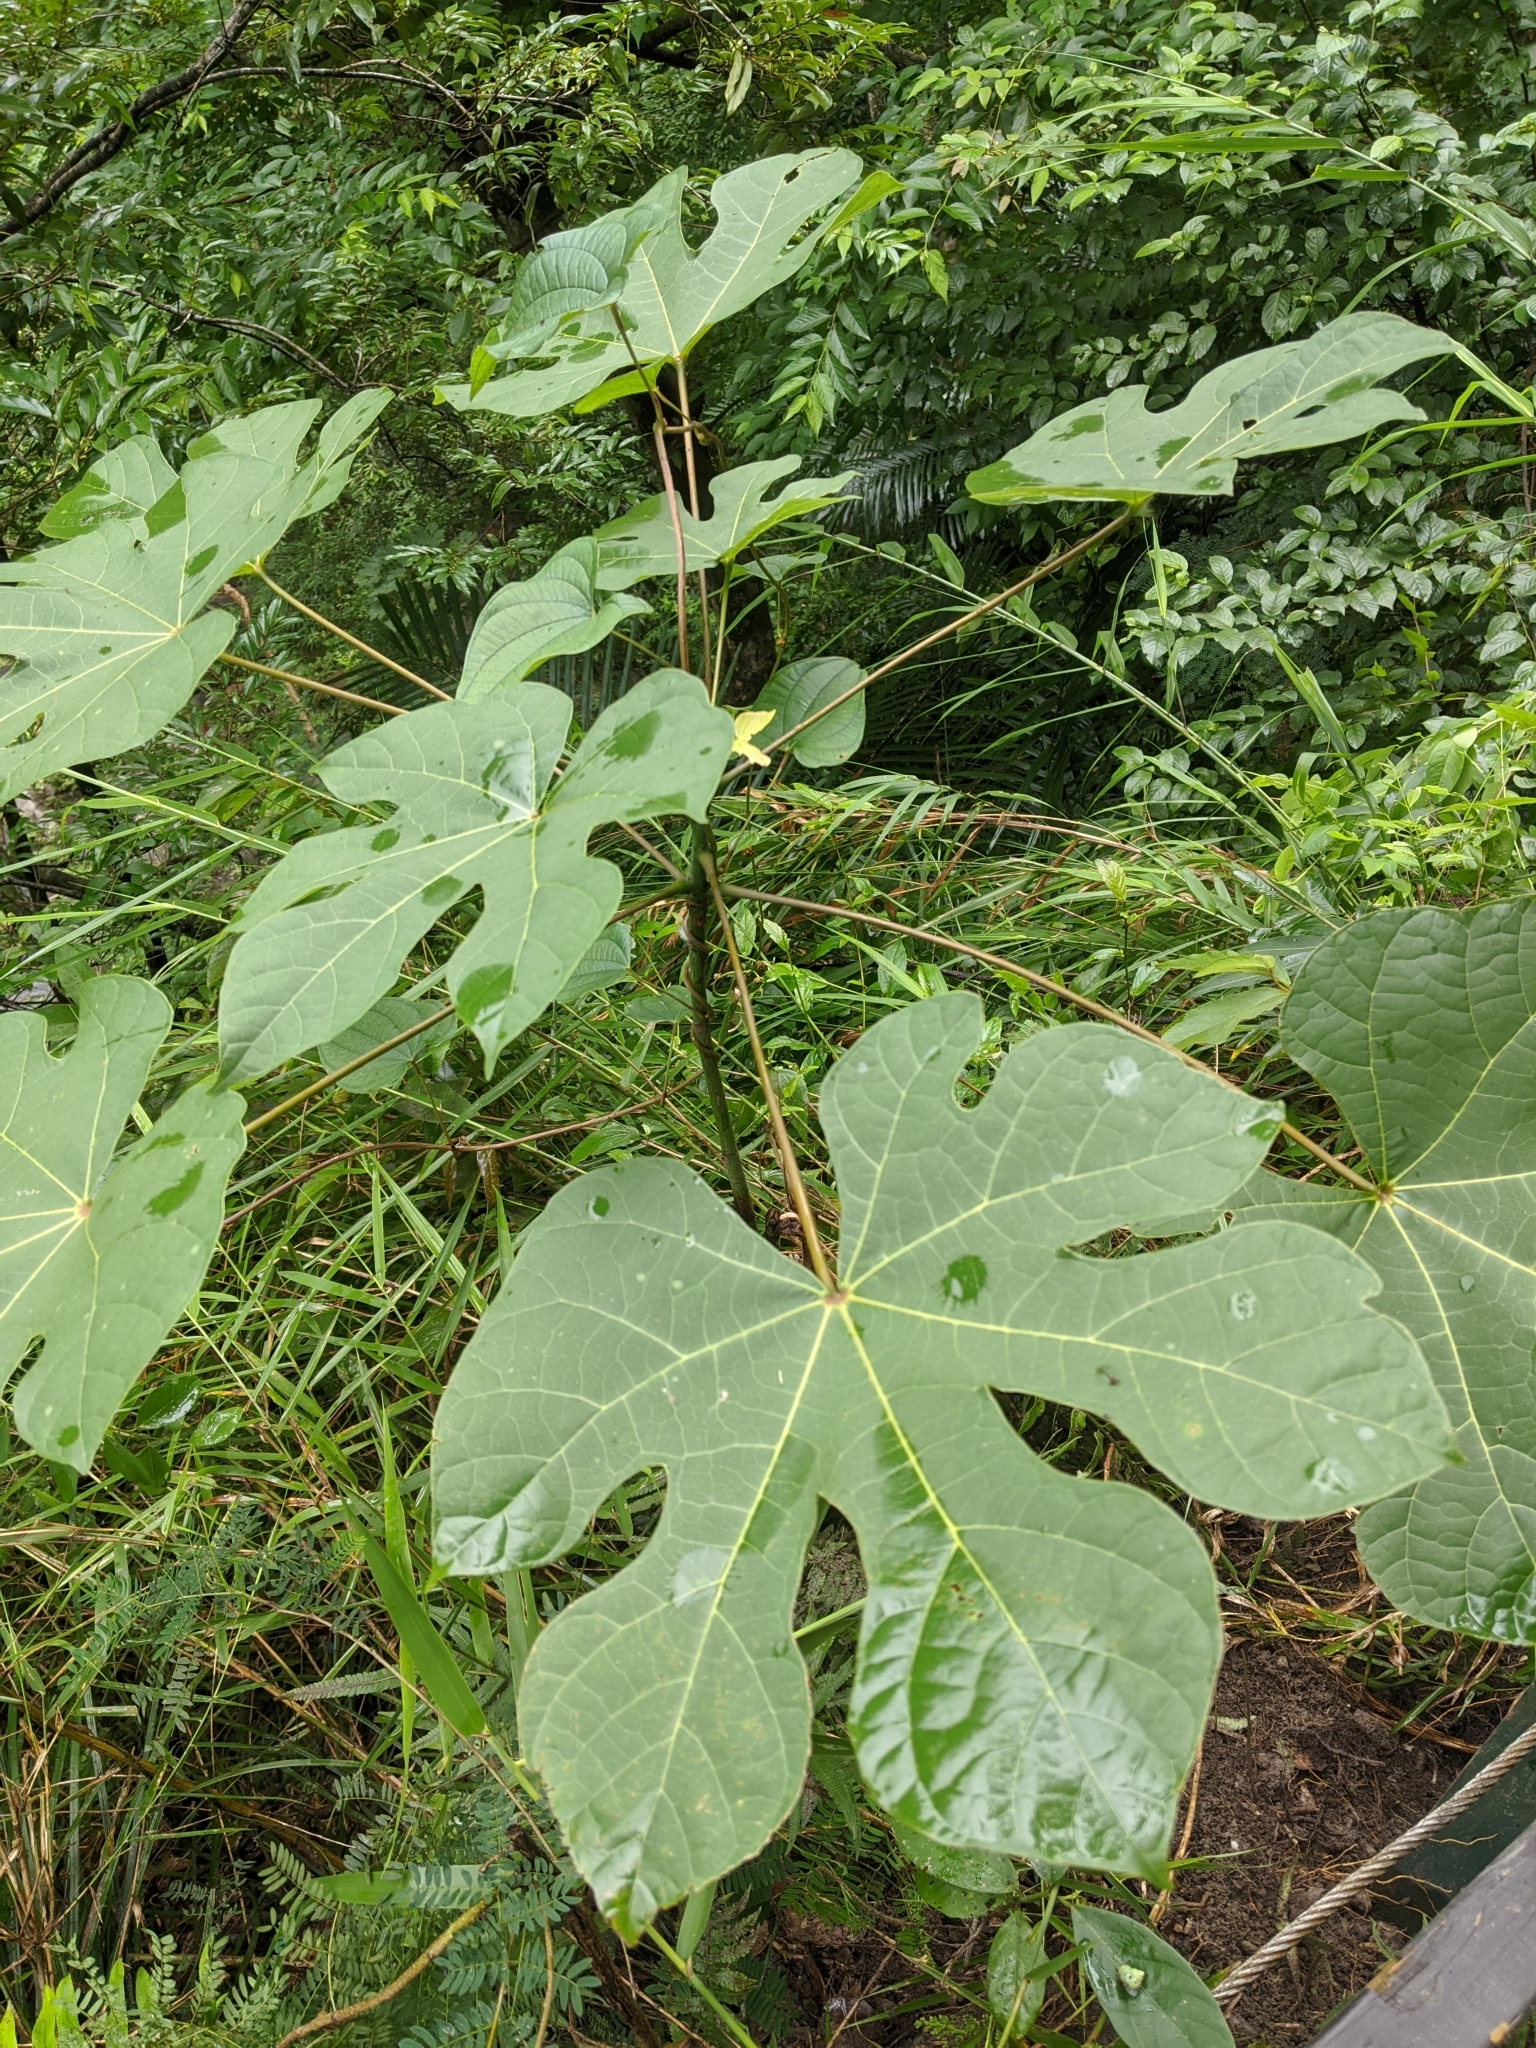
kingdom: Plantae
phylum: Tracheophyta
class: Magnoliopsida
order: Malvales
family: Malvaceae
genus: Firmiana
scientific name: Firmiana simplex
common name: Chinese parasoltree
